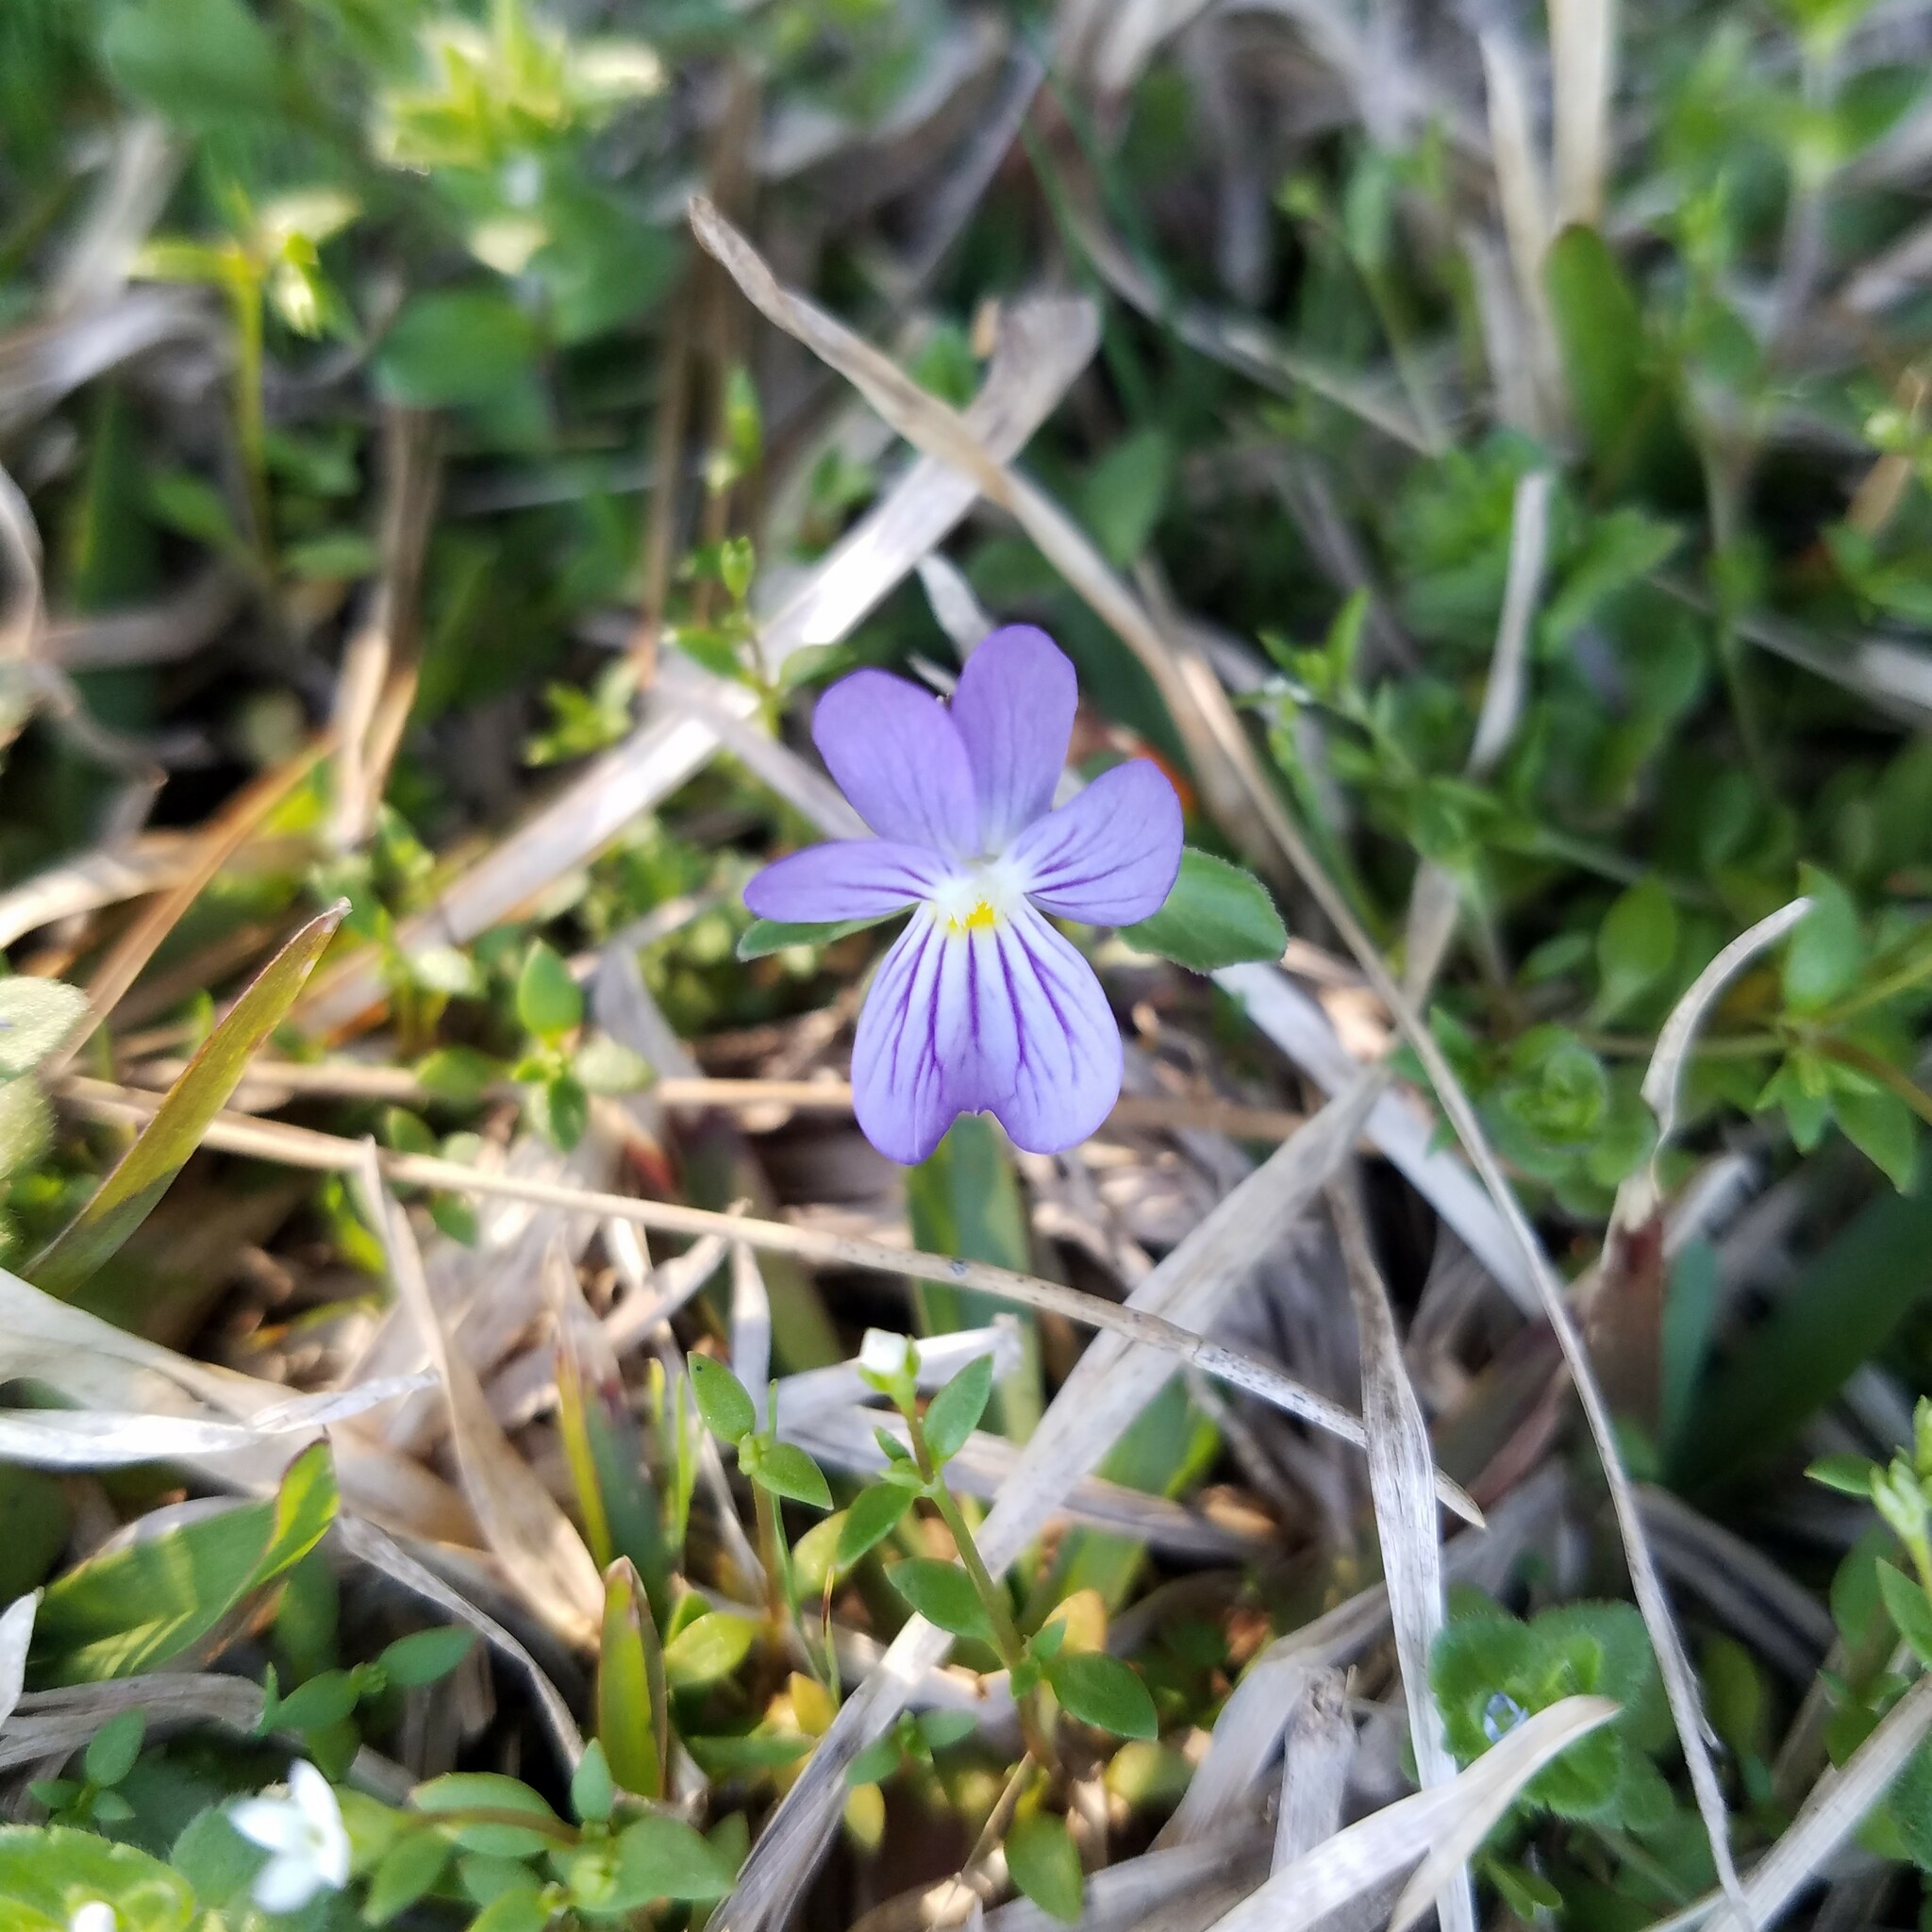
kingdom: Plantae
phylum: Tracheophyta
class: Magnoliopsida
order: Malpighiales
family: Violaceae
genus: Viola
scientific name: Viola rafinesquei
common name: American field pansy
